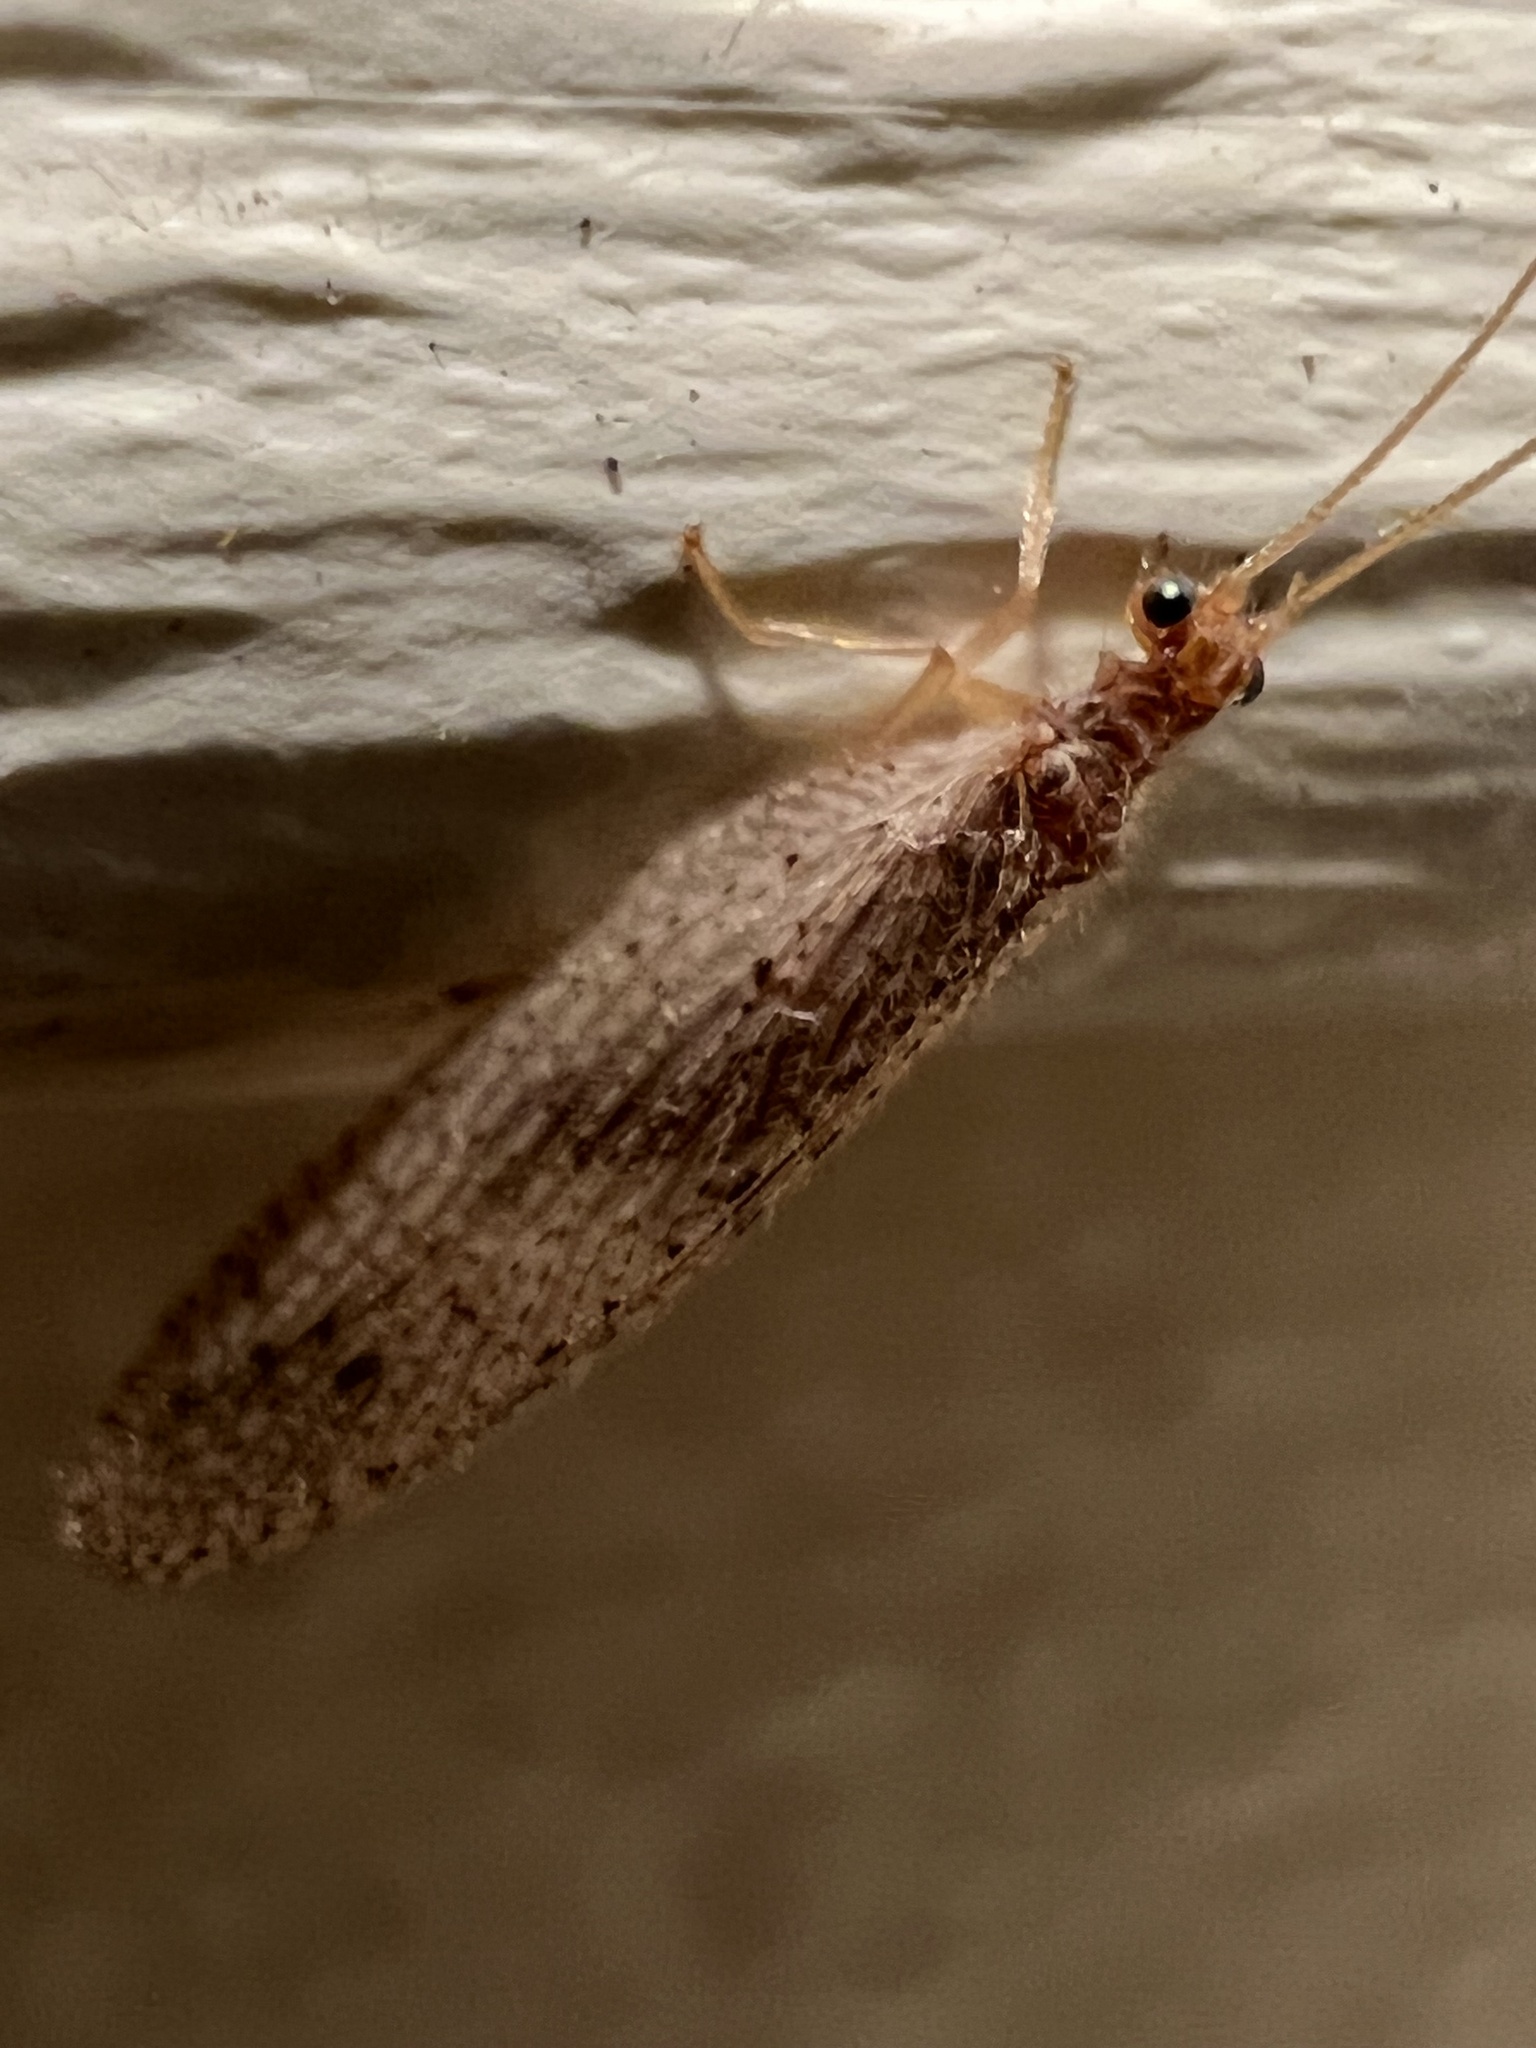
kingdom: Animalia
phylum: Arthropoda
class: Insecta
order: Neuroptera
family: Hemerobiidae
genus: Micromus
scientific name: Micromus subanticus
